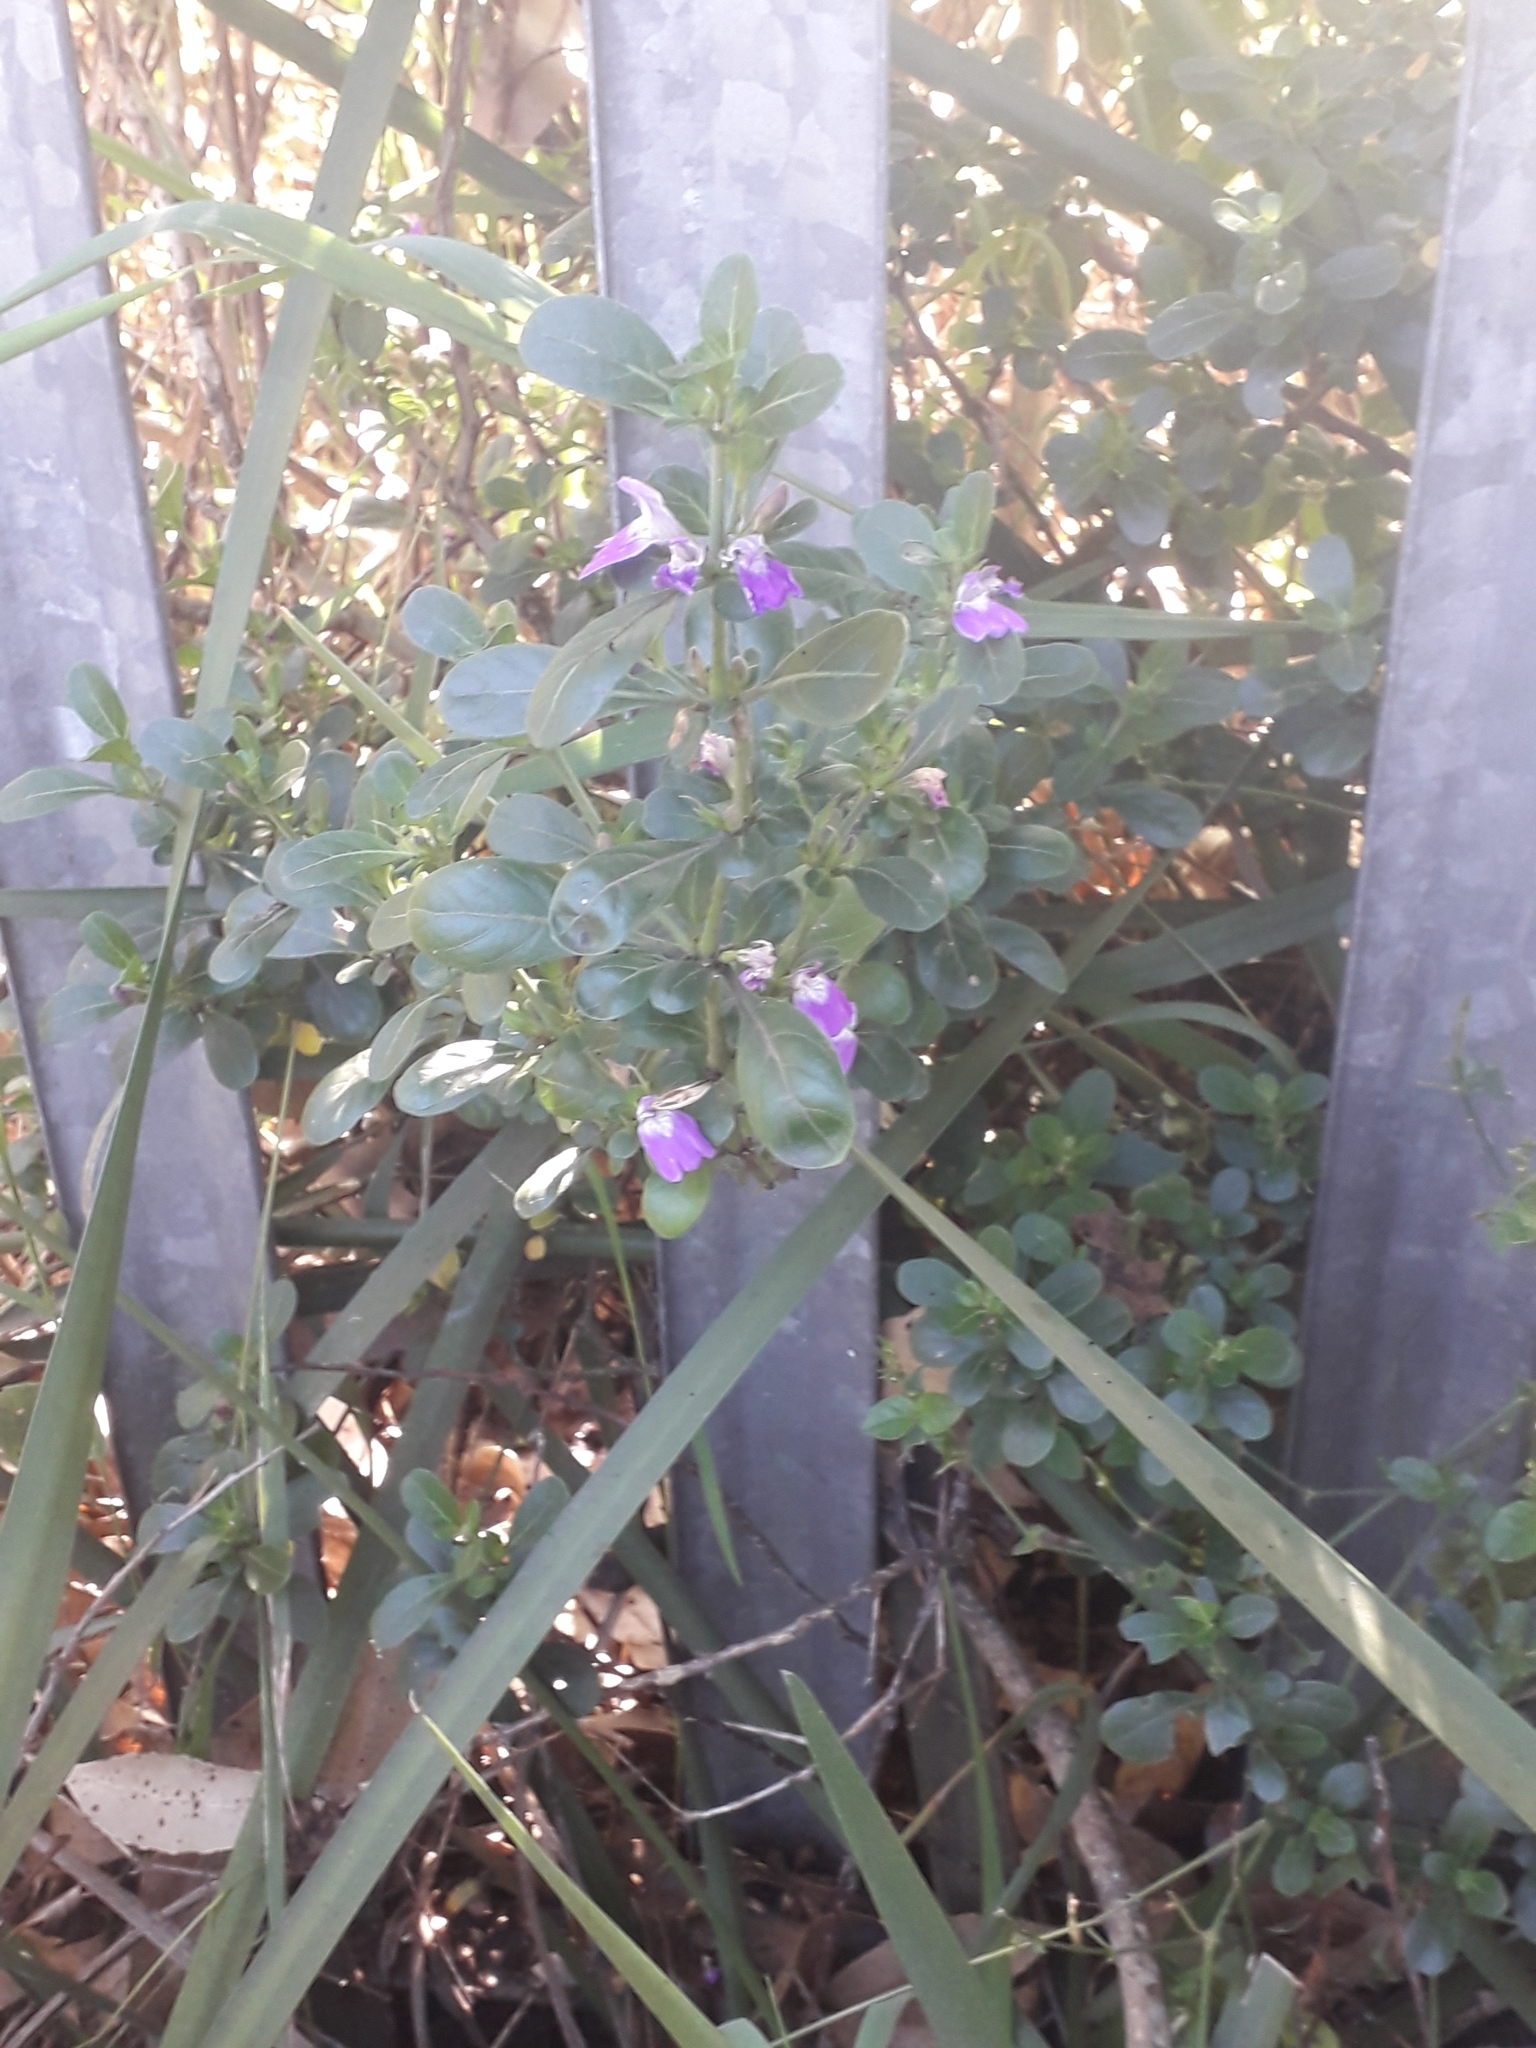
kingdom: Plantae
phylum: Tracheophyta
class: Magnoliopsida
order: Lamiales
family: Acanthaceae
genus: Justicia
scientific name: Justicia capensis
